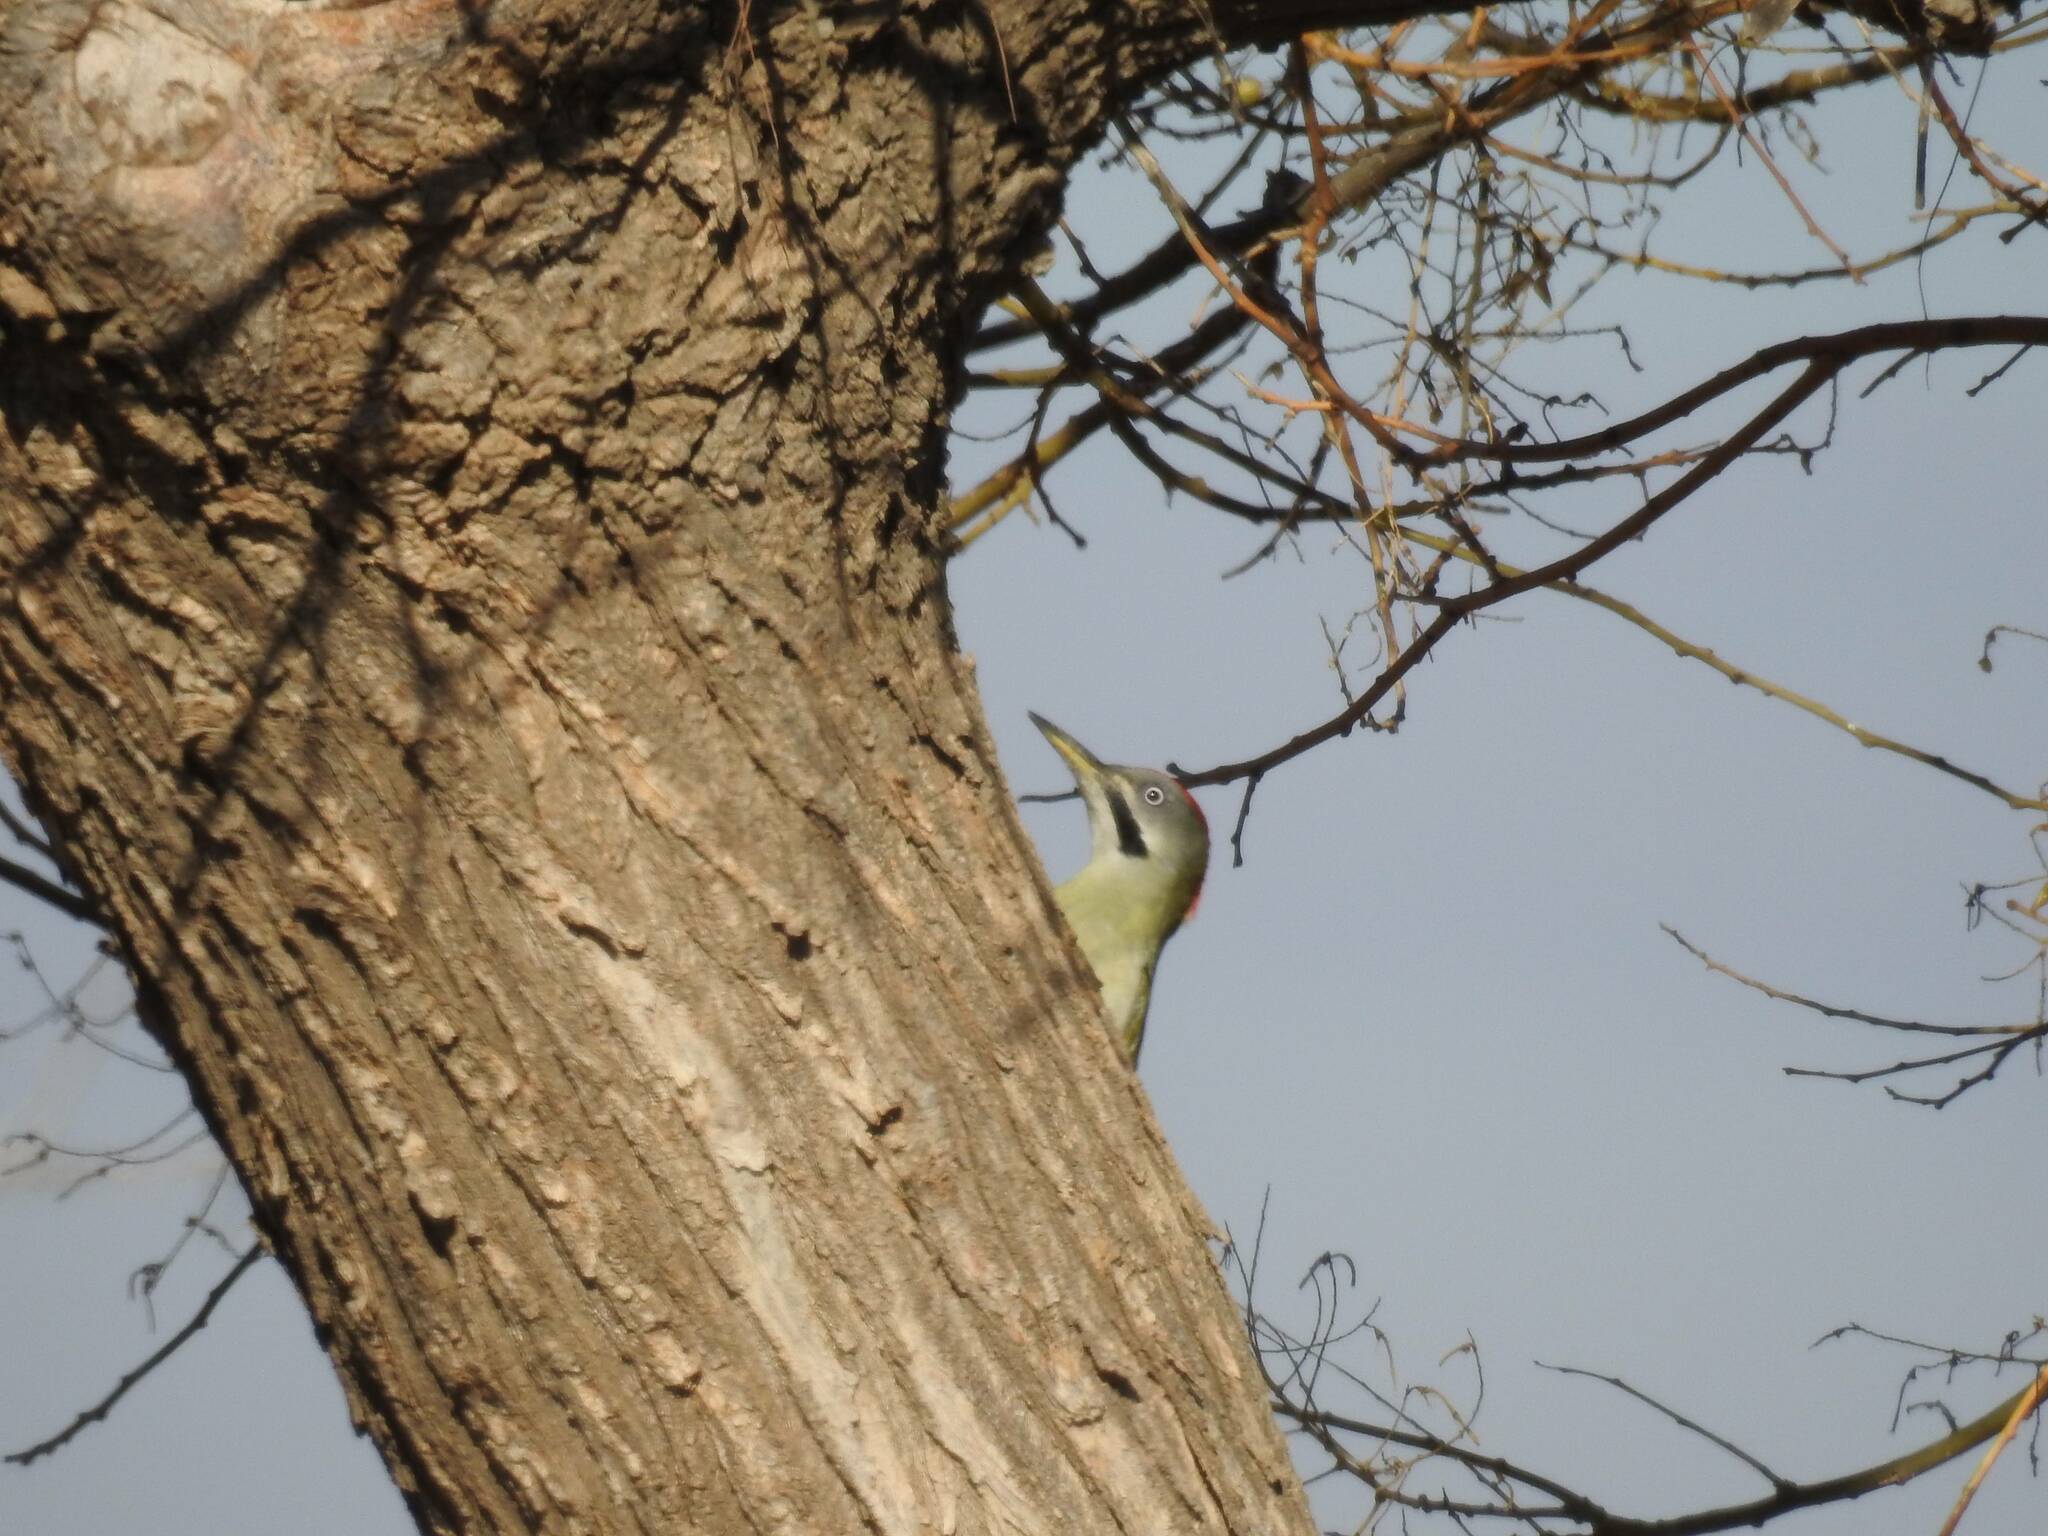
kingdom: Animalia
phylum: Chordata
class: Aves
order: Piciformes
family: Picidae
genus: Picus
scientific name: Picus vaillantii
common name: Levaillant's woodpecker
